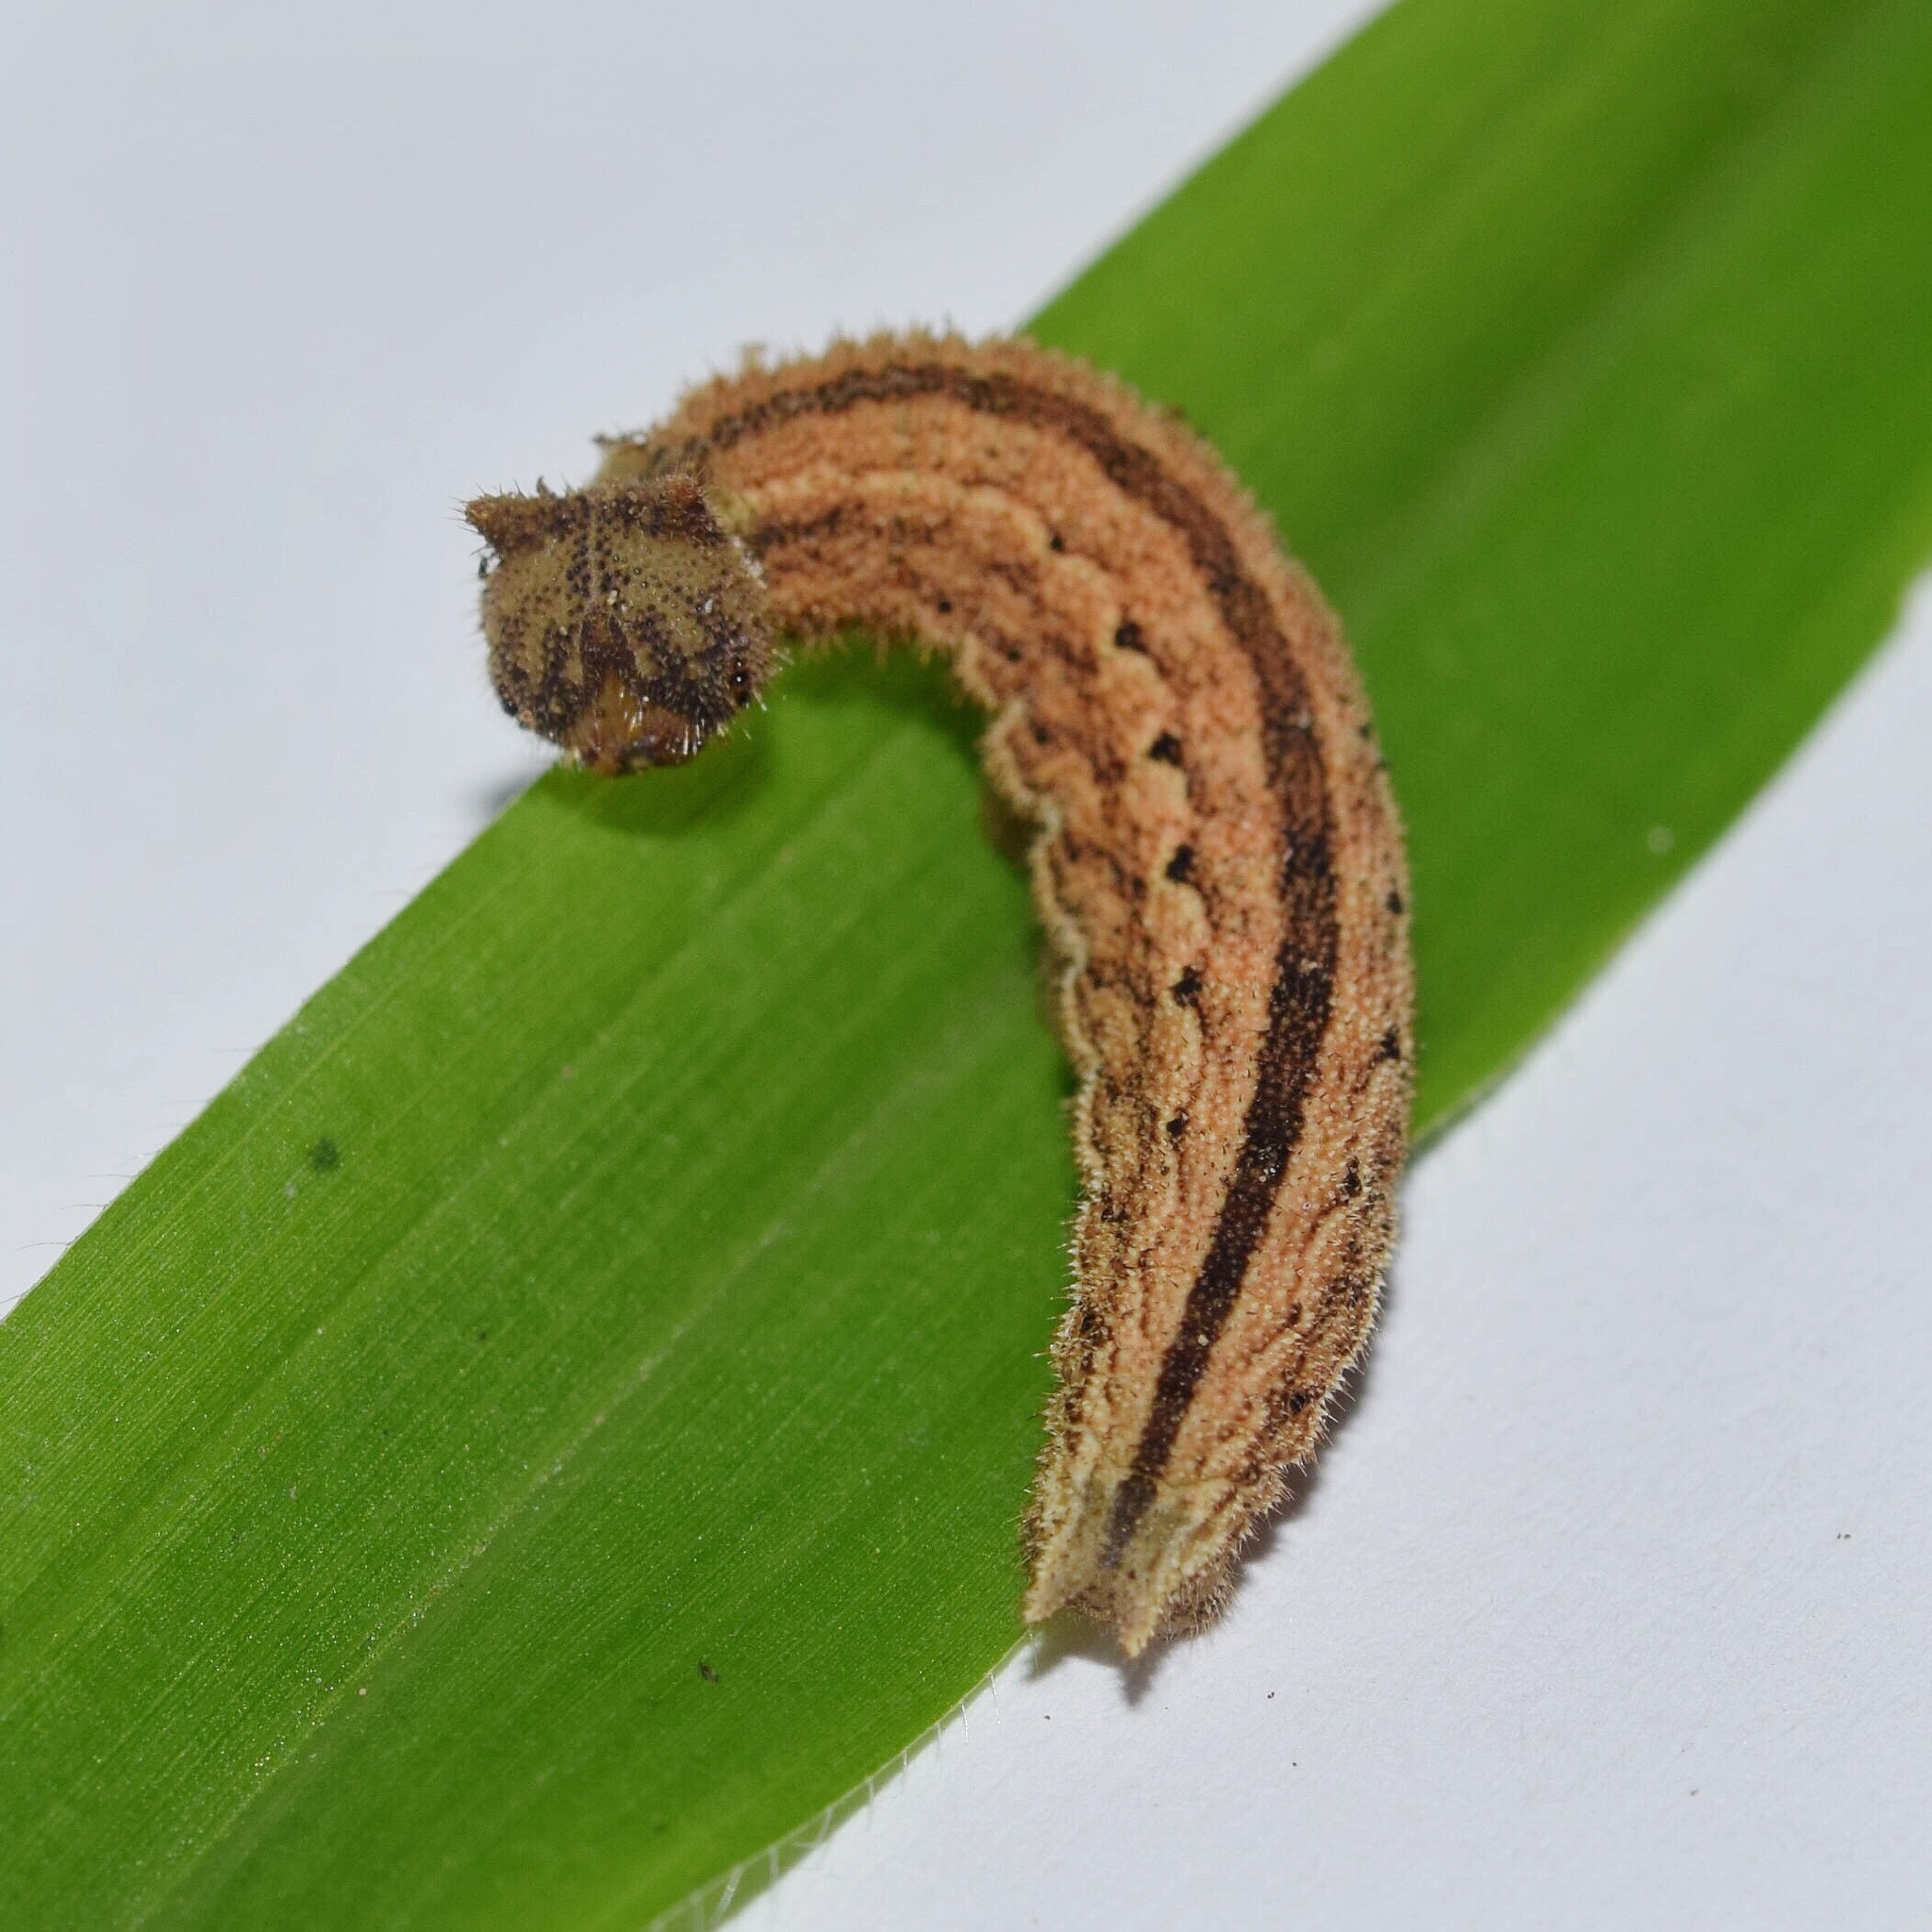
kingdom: Animalia
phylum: Arthropoda
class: Insecta
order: Lepidoptera
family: Nymphalidae
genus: Mycalesis
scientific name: Mycalesis rhacotis
